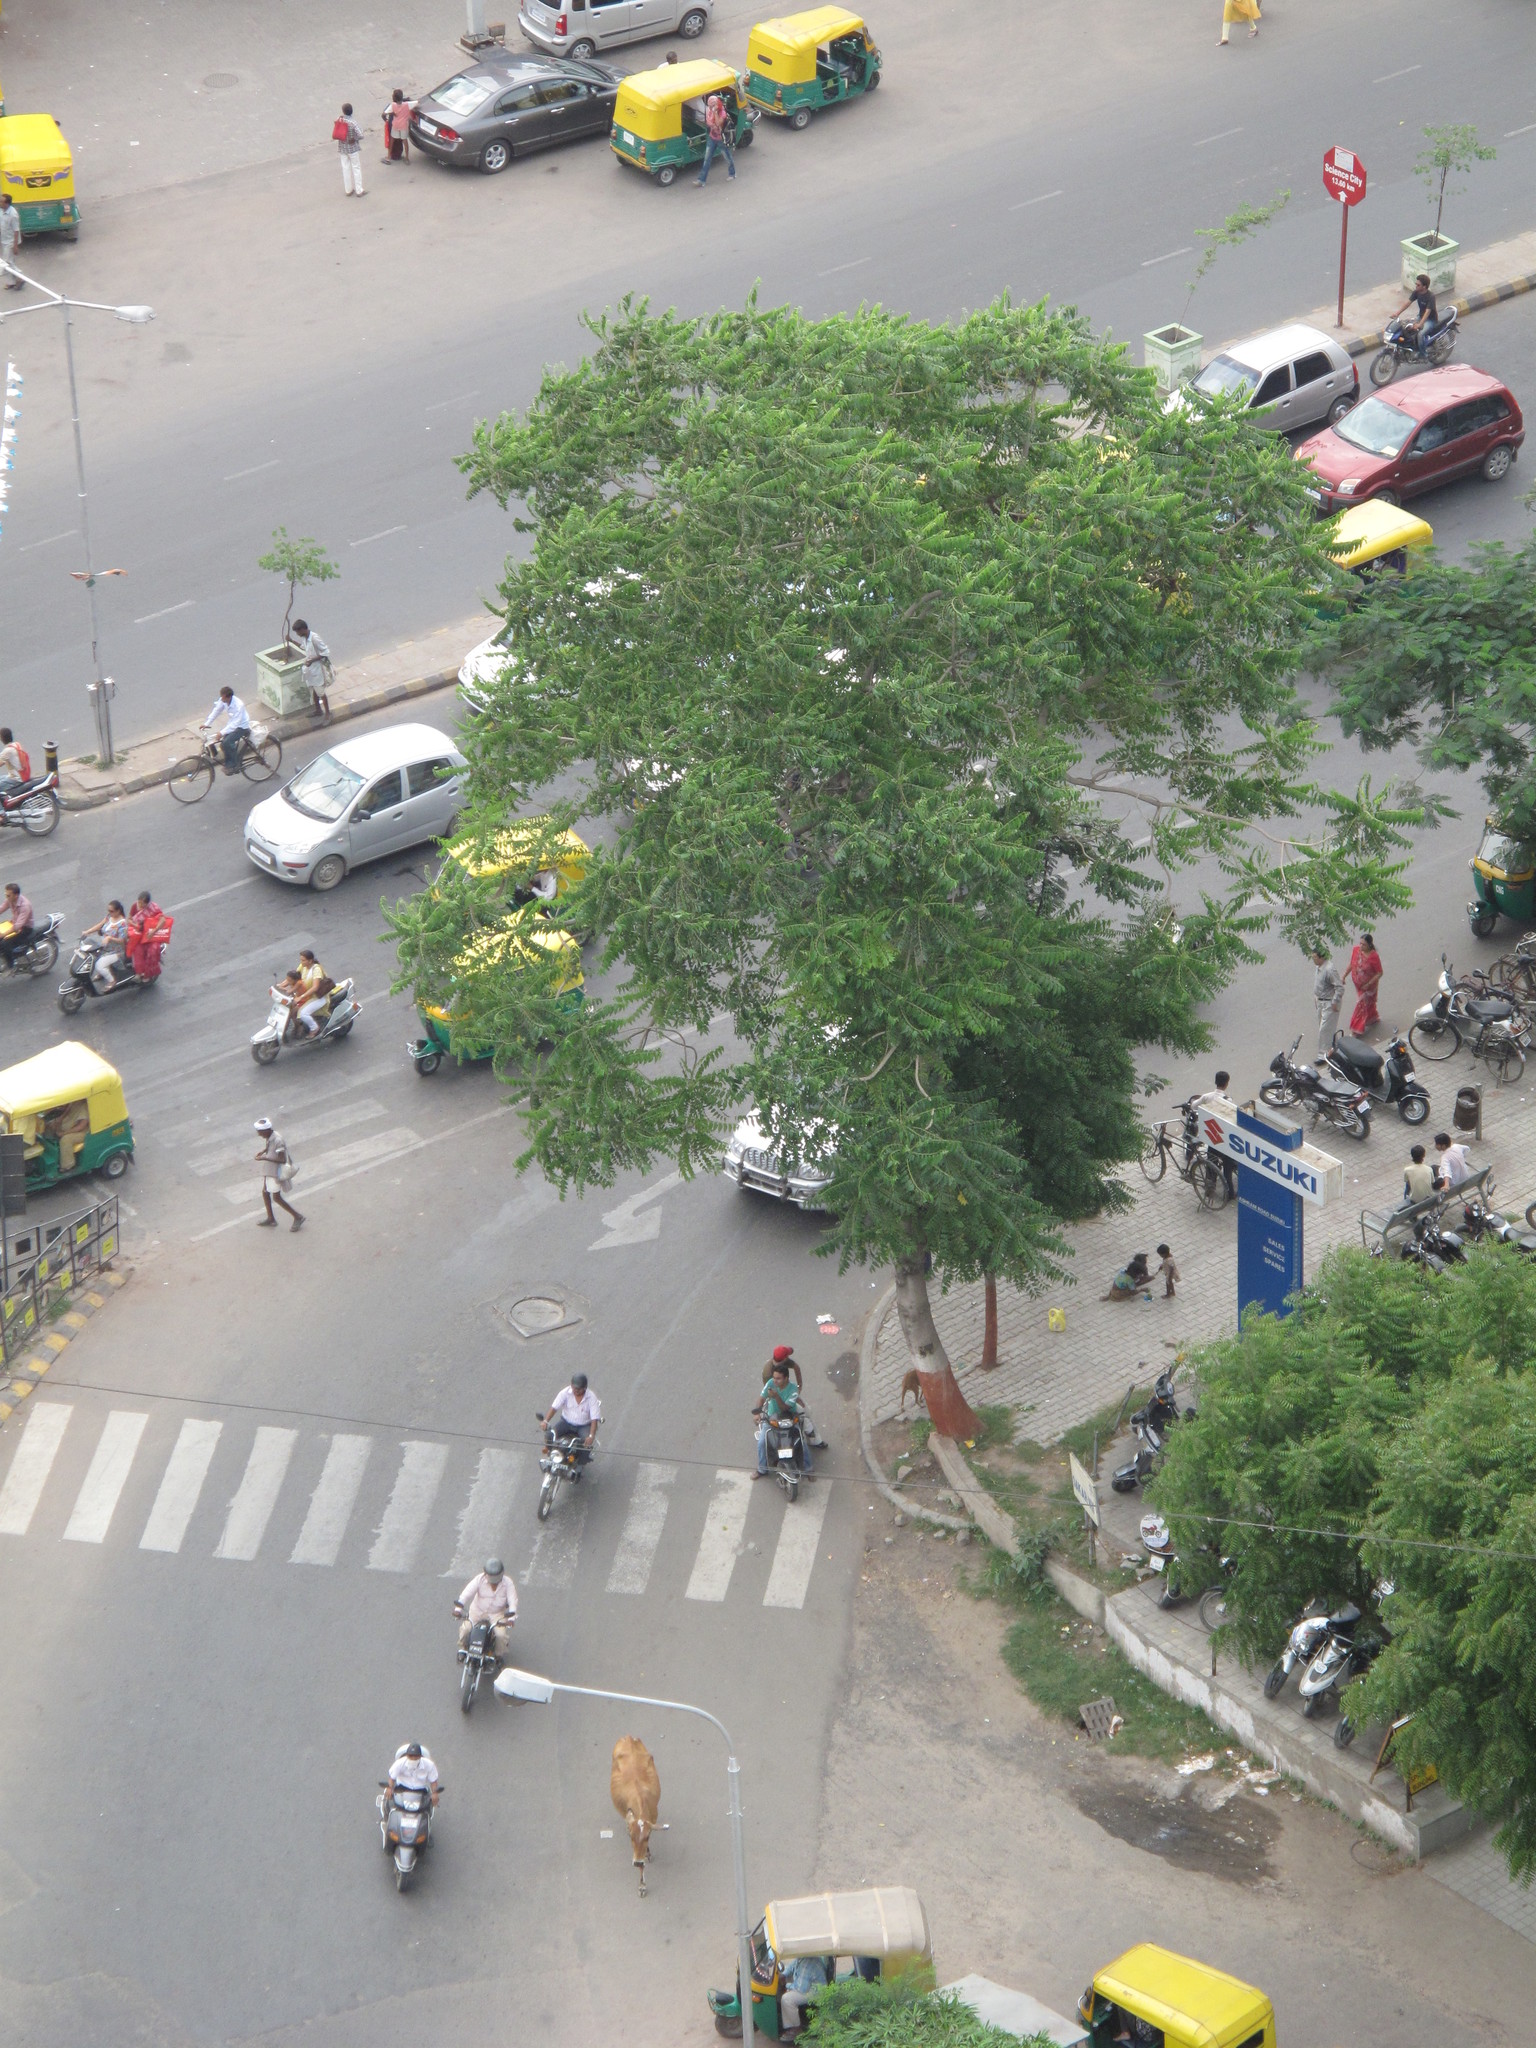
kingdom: Plantae
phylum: Tracheophyta
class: Magnoliopsida
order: Sapindales
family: Simaroubaceae
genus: Ailanthus
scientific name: Ailanthus excelsa
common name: Indian tree-of-heaven
